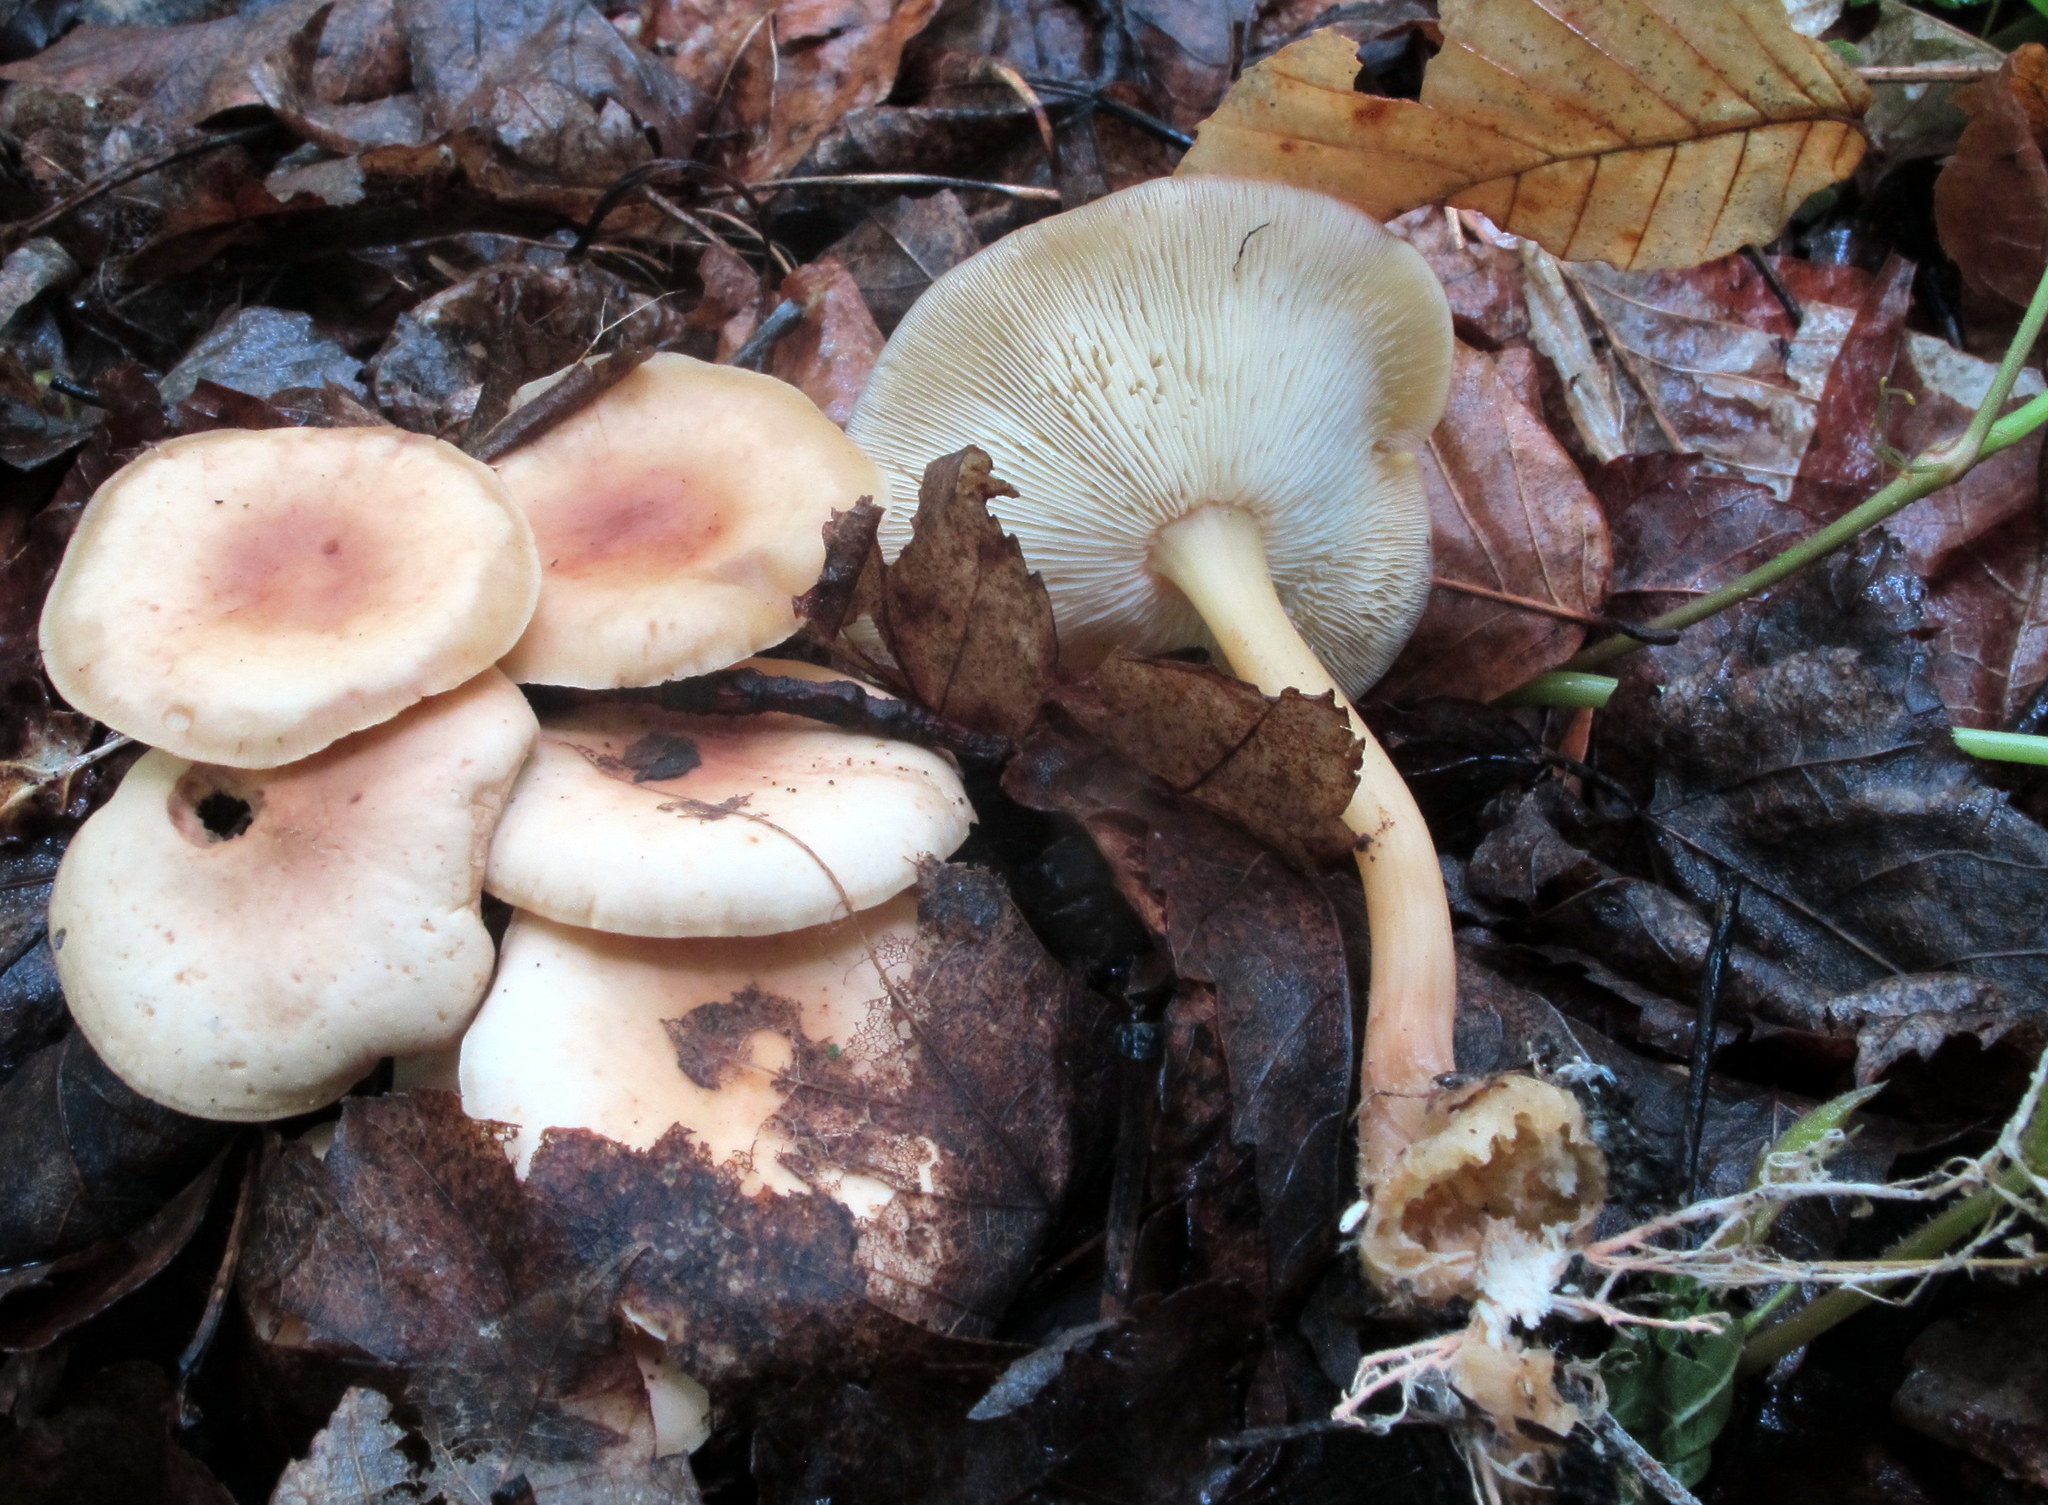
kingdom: Fungi
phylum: Basidiomycota
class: Agaricomycetes
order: Agaricales
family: Omphalotaceae
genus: Gymnopus
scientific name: Gymnopus earleae
